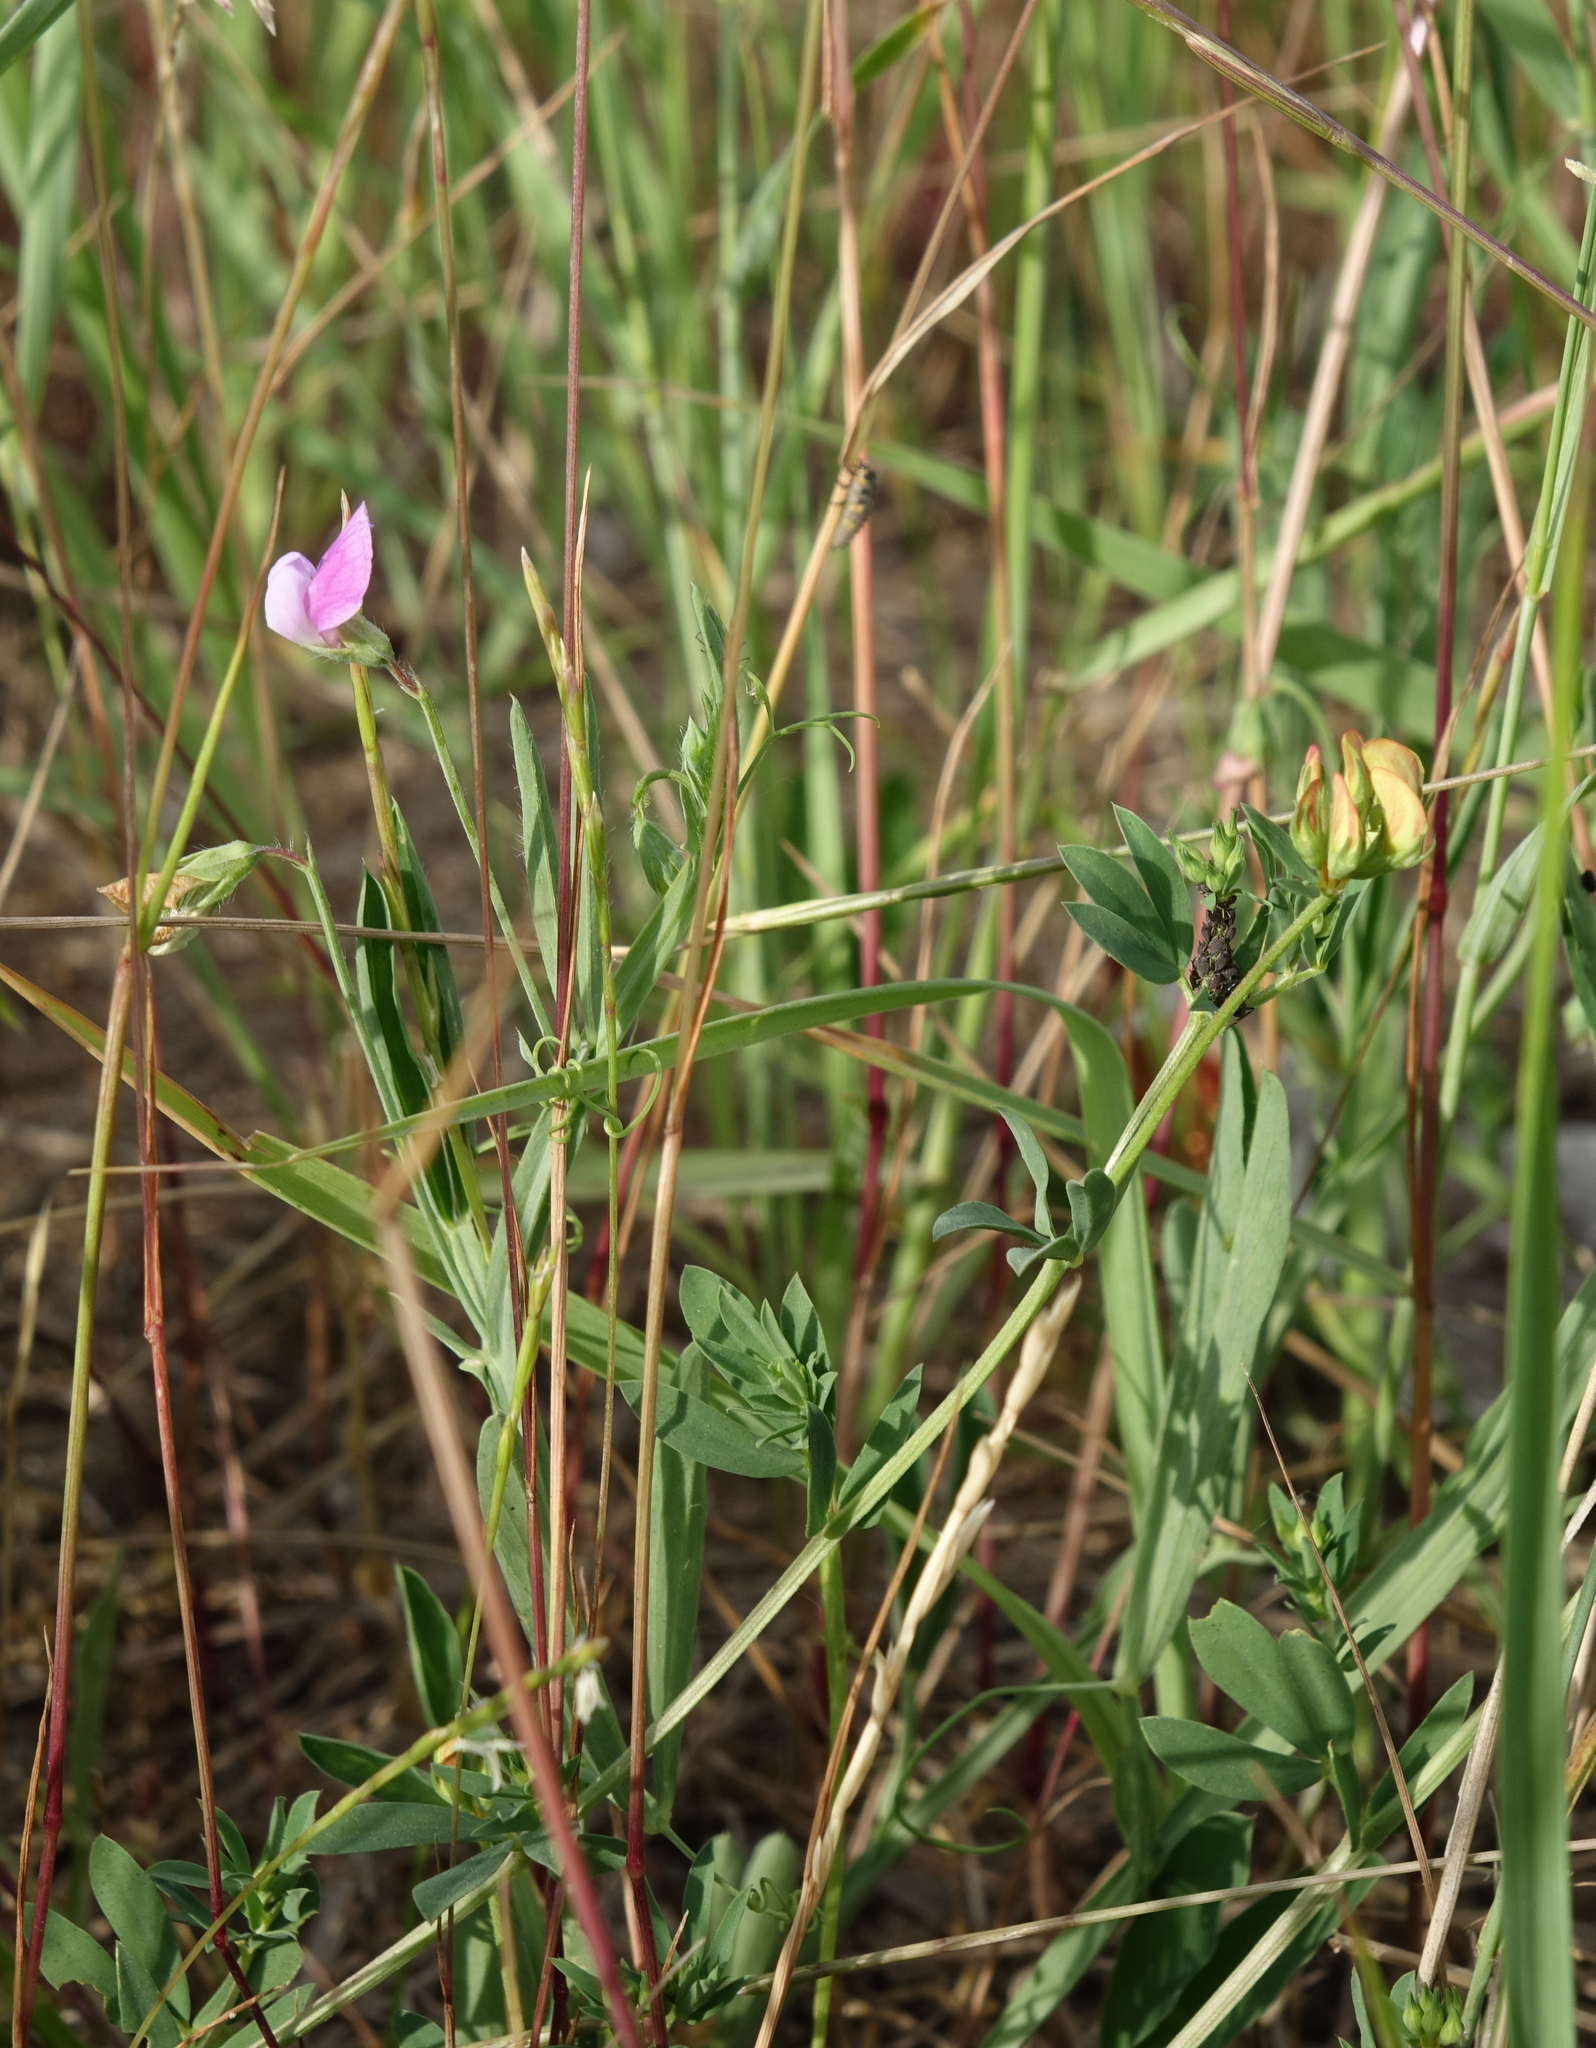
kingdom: Plantae
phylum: Tracheophyta
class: Magnoliopsida
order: Fabales
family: Fabaceae
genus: Lathyrus
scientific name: Lathyrus hirsutus
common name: Hairy vetchling
